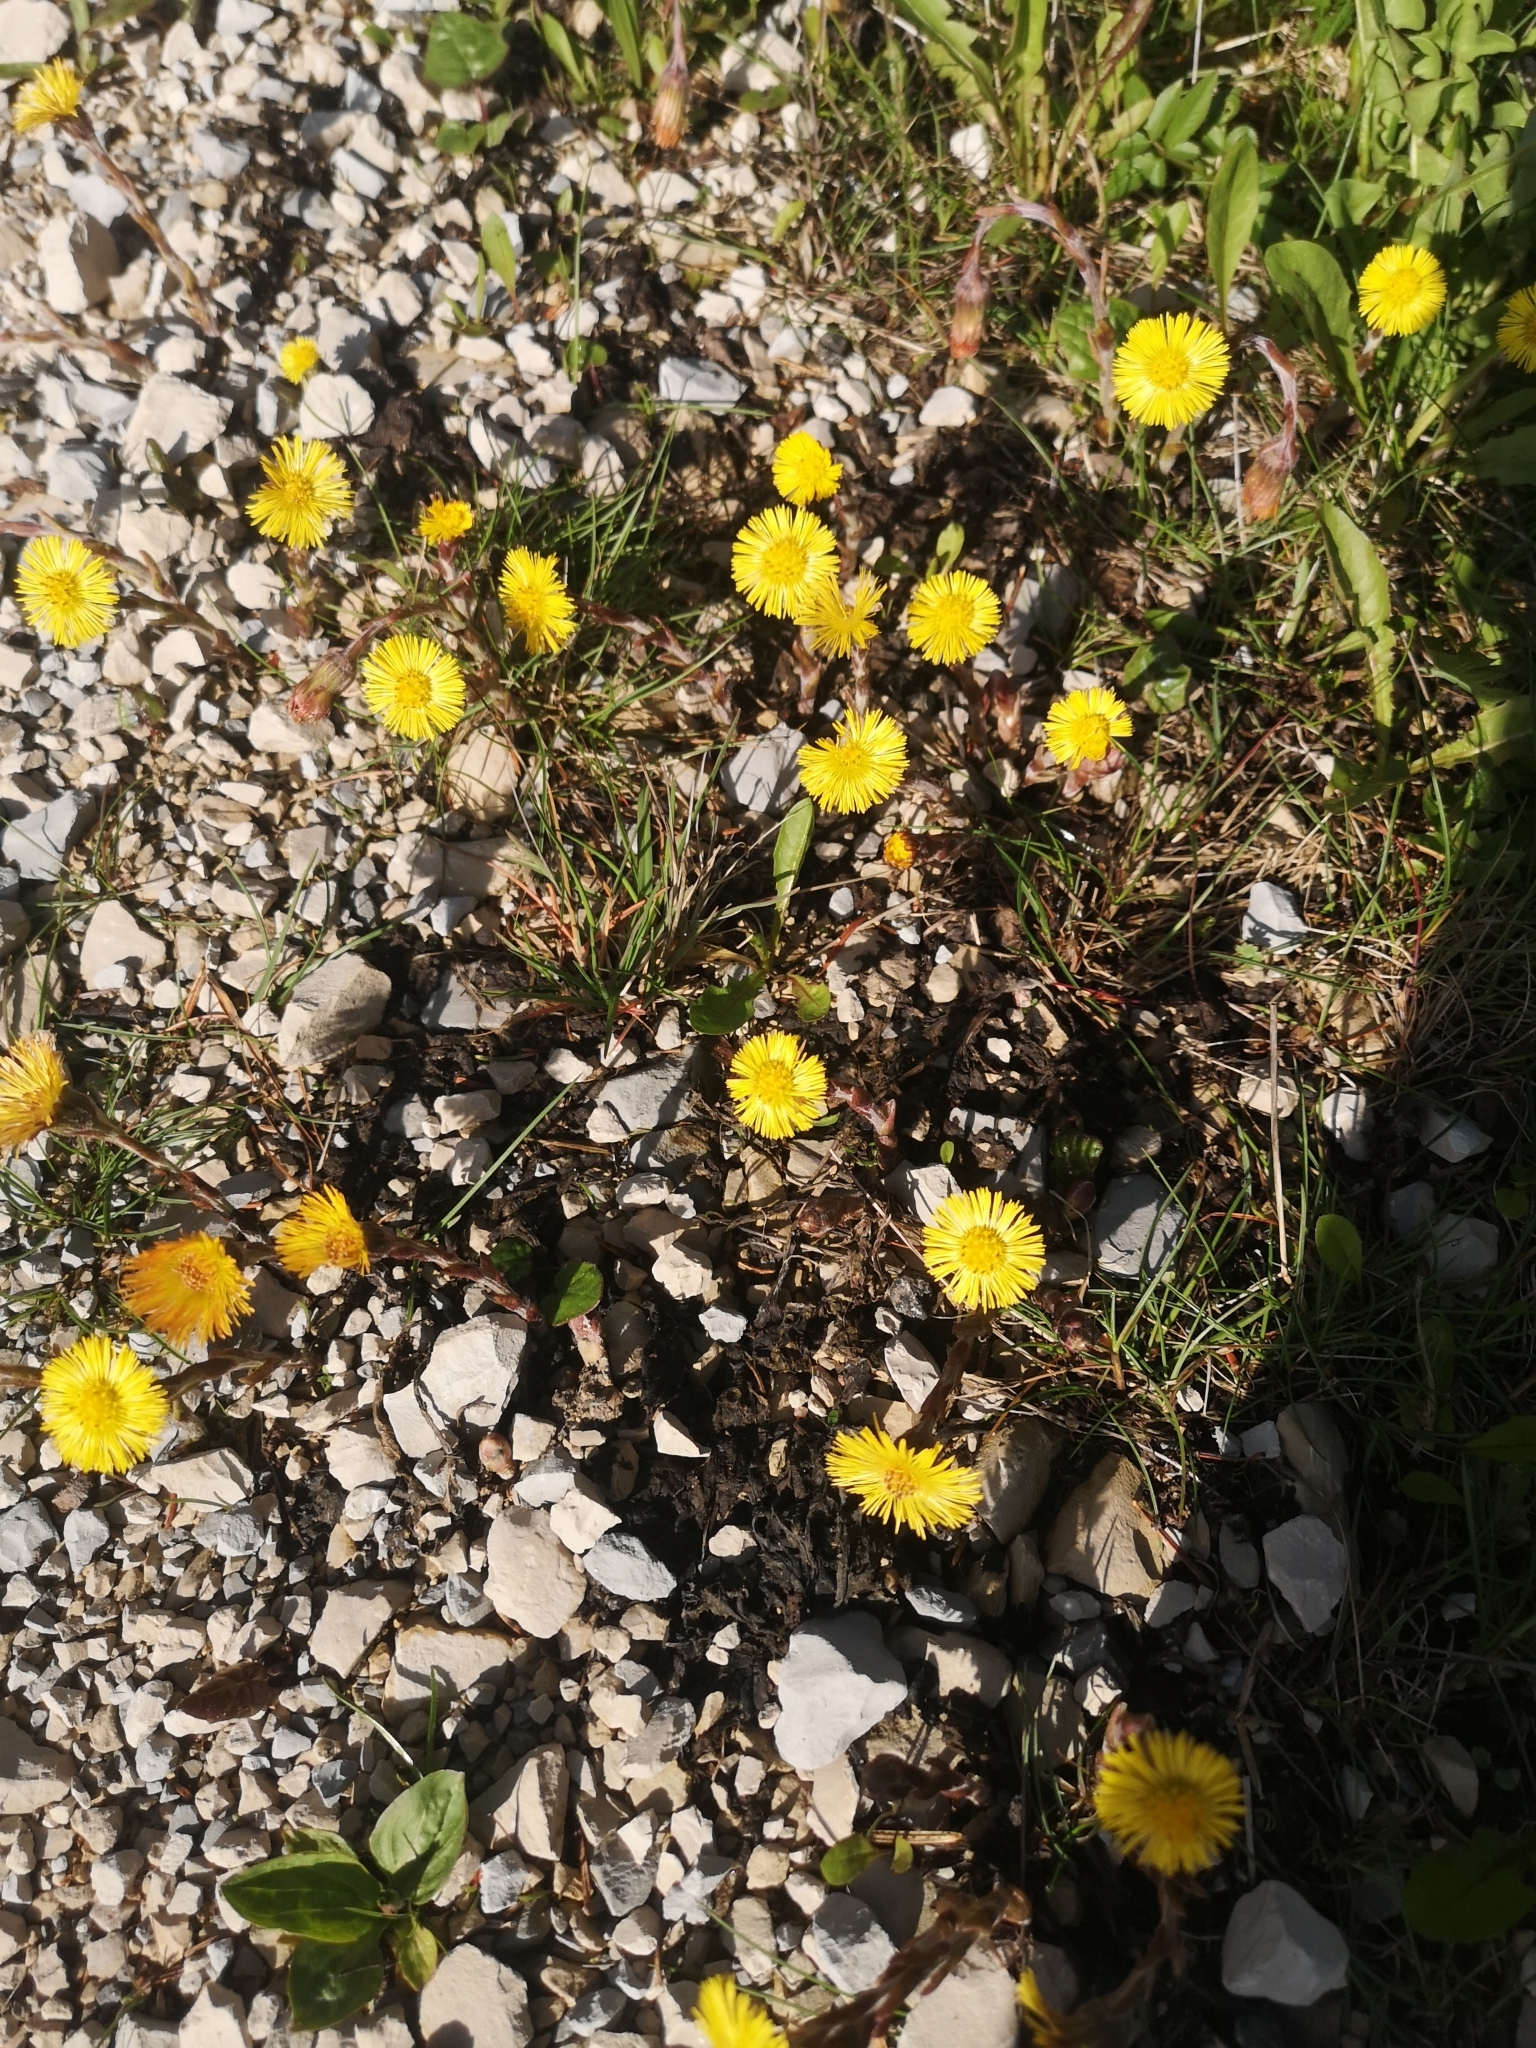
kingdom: Plantae
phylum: Tracheophyta
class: Magnoliopsida
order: Asterales
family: Asteraceae
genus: Tussilago
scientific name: Tussilago farfara
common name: Coltsfoot
